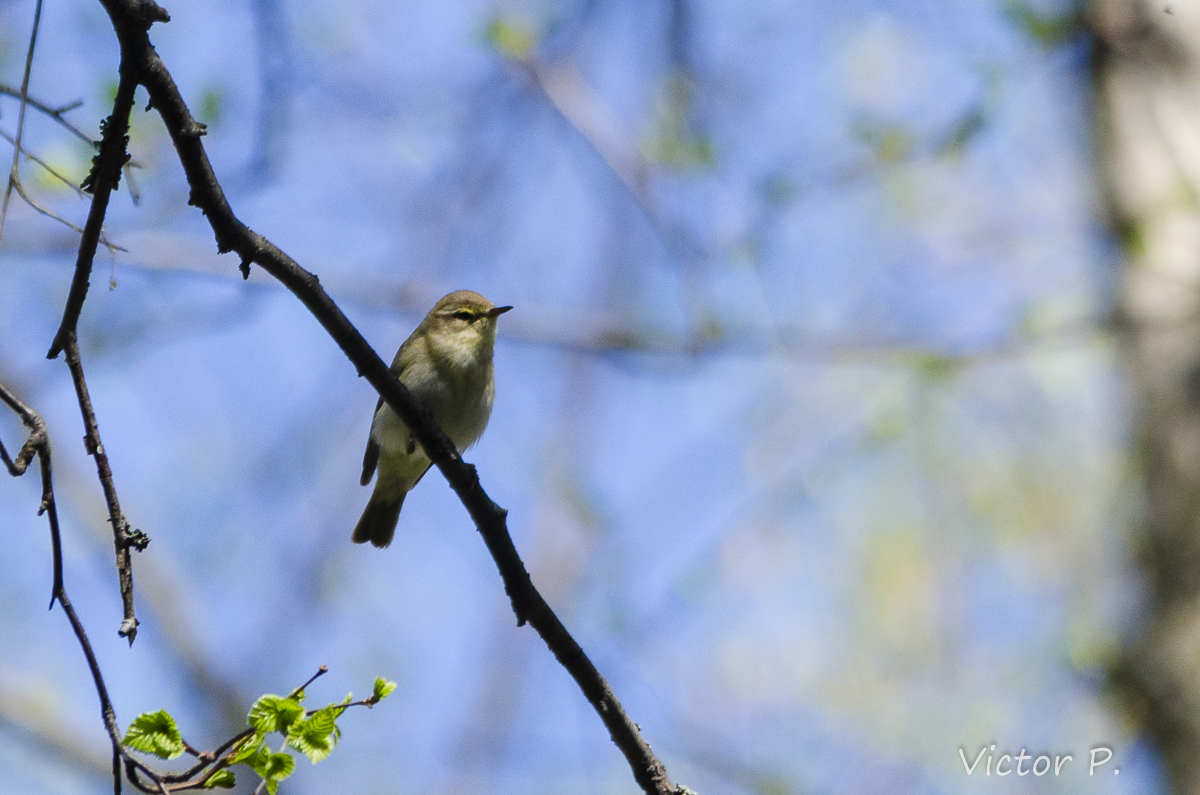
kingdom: Animalia
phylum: Chordata
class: Aves
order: Passeriformes
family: Phylloscopidae
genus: Phylloscopus
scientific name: Phylloscopus trochilus
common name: Willow warbler
